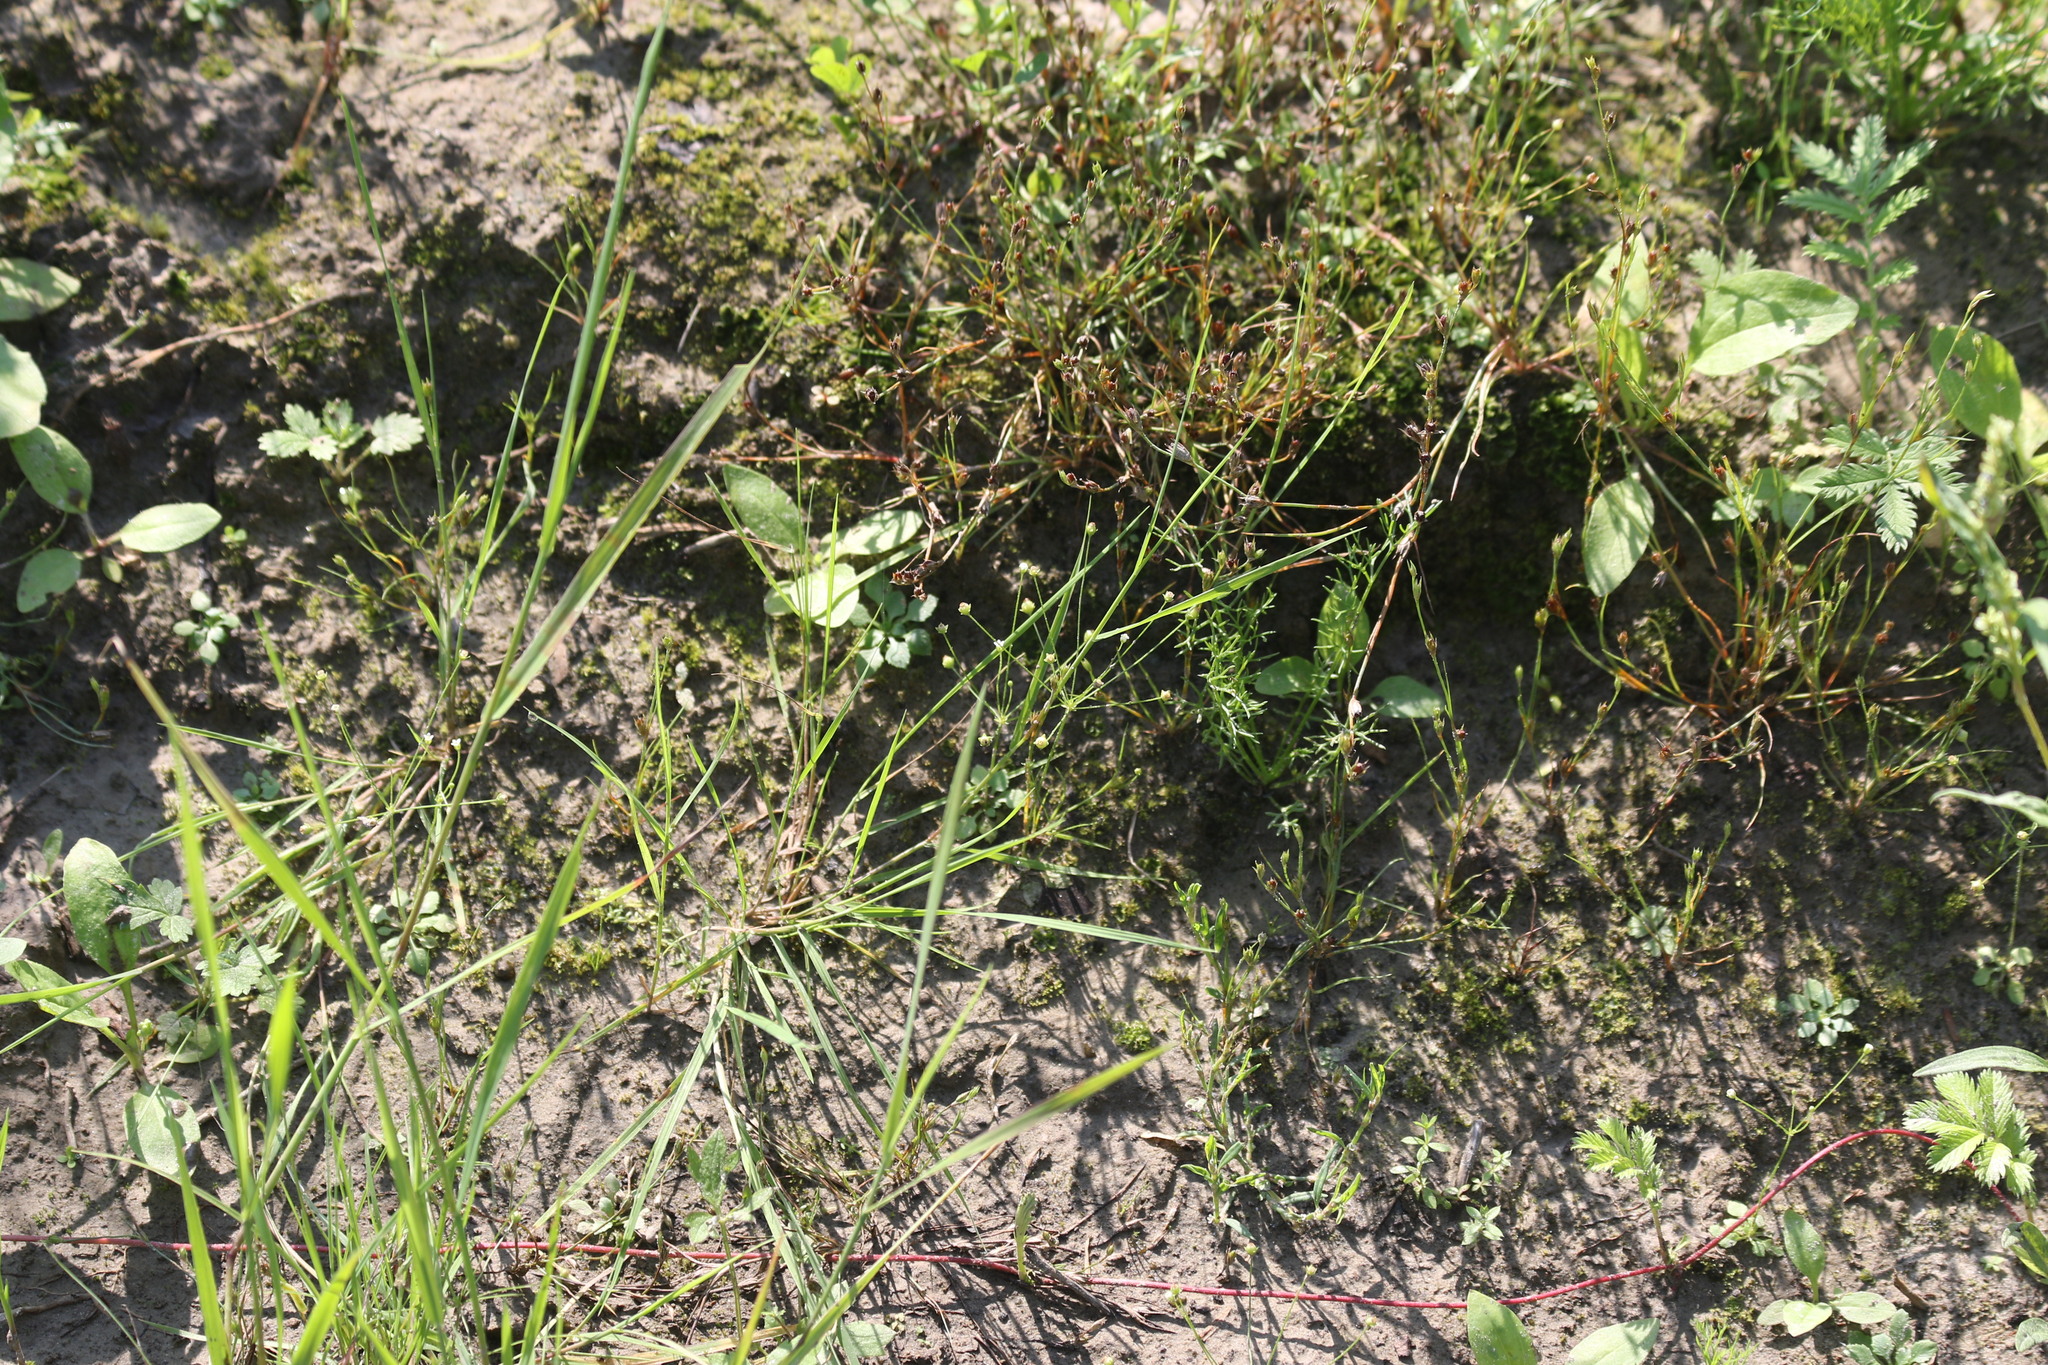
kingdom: Plantae
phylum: Tracheophyta
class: Magnoliopsida
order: Ericales
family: Primulaceae
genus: Androsace
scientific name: Androsace filiformis
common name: Filiform rock jasmine
